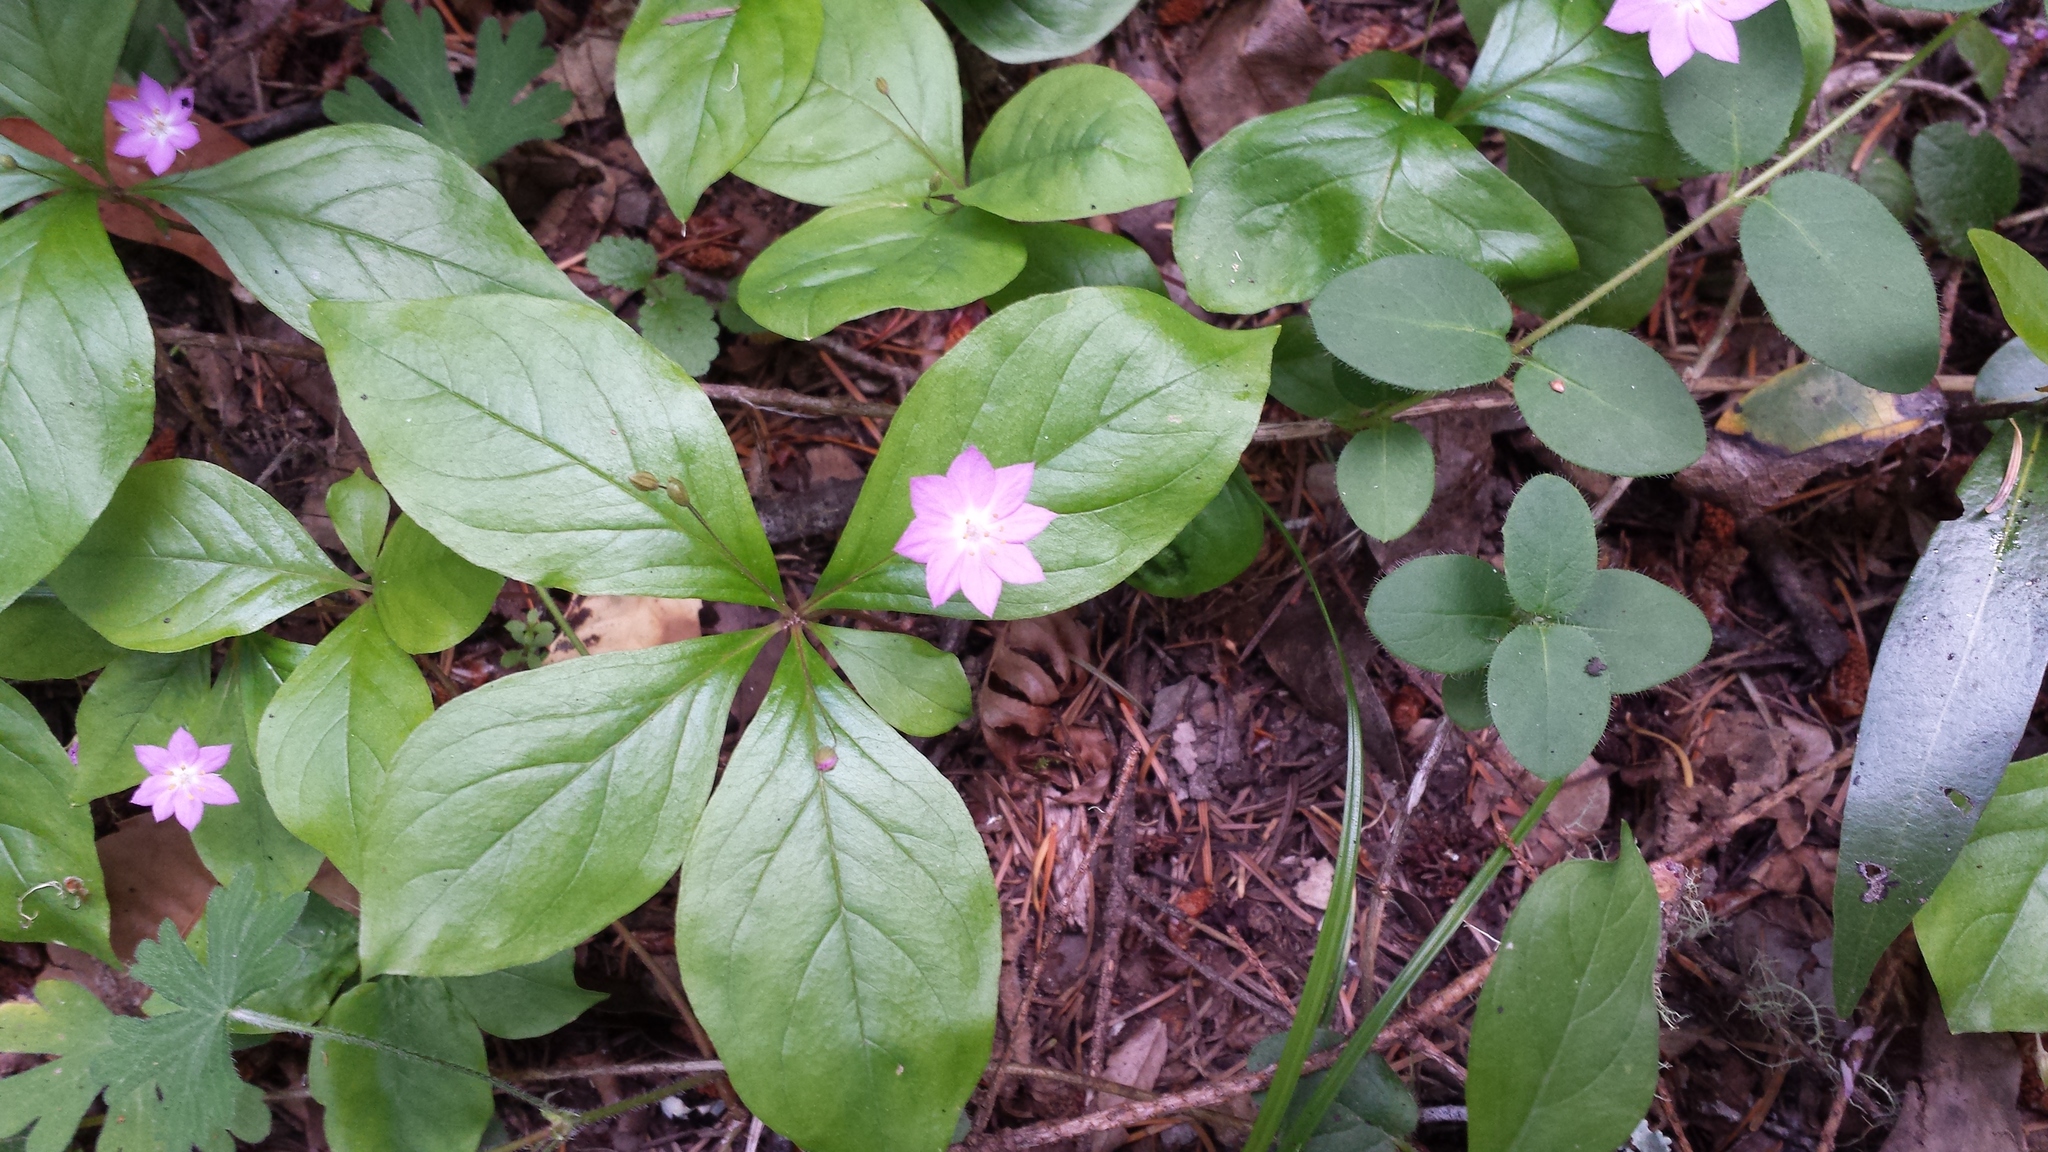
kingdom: Plantae
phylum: Tracheophyta
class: Magnoliopsida
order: Ericales
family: Primulaceae
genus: Lysimachia
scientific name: Lysimachia latifolia
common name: Pacific starflower
